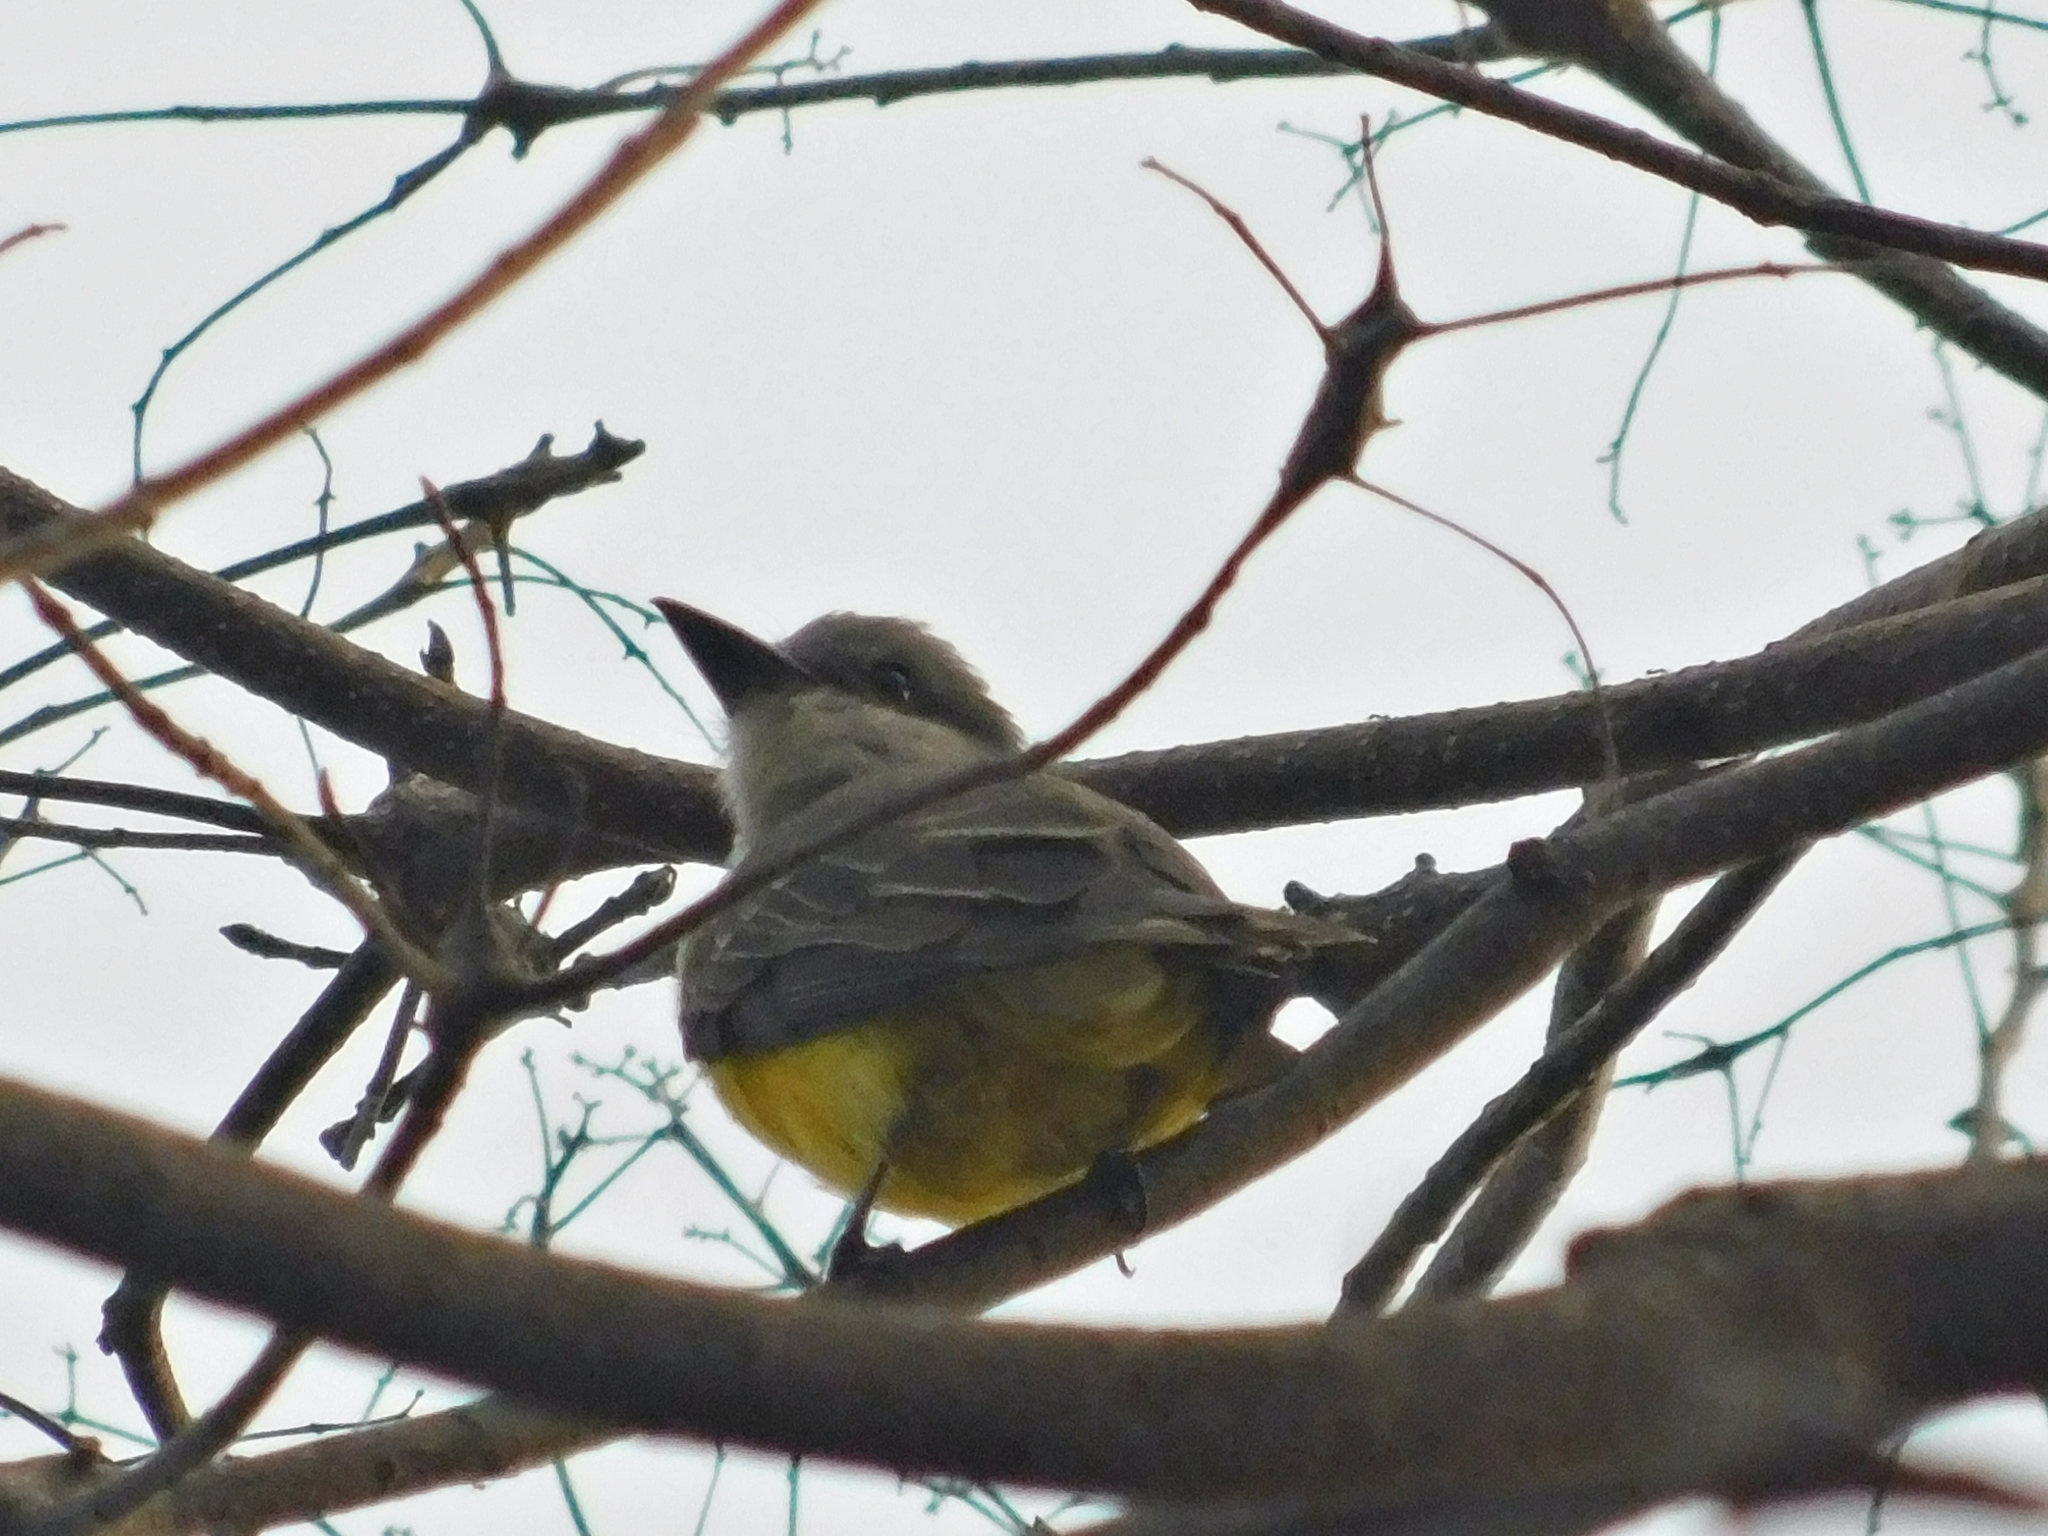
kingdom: Animalia
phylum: Chordata
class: Aves
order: Passeriformes
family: Tyrannidae
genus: Tyrannus
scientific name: Tyrannus melancholicus
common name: Tropical kingbird
